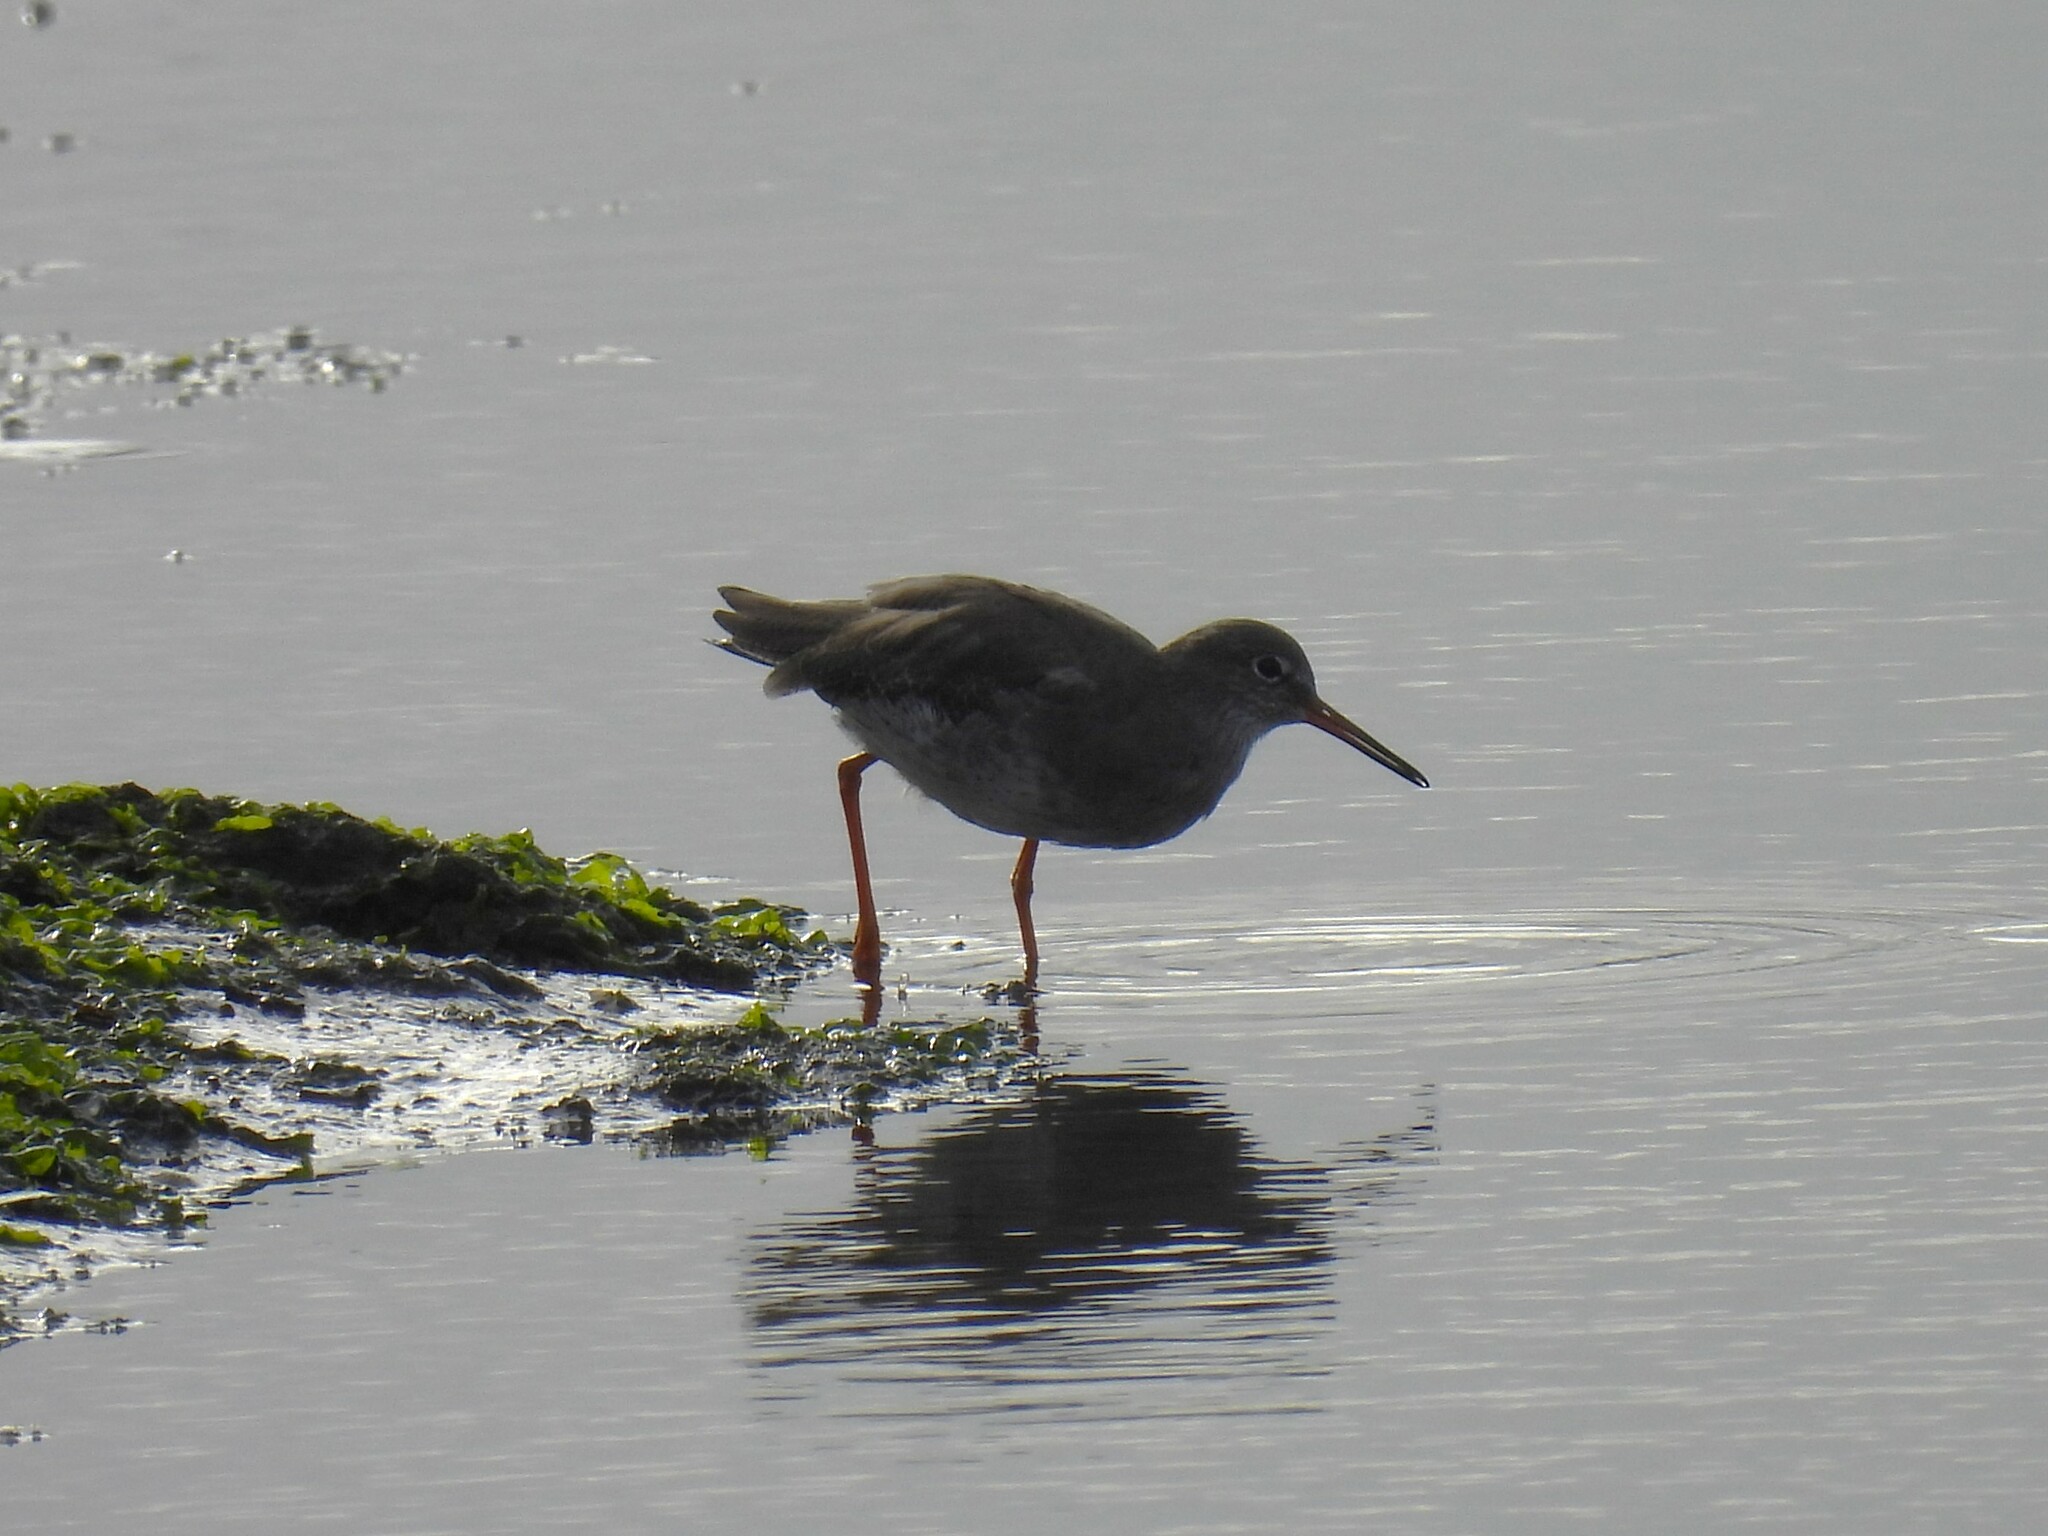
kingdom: Animalia
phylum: Chordata
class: Aves
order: Charadriiformes
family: Scolopacidae
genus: Tringa
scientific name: Tringa totanus
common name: Common redshank
